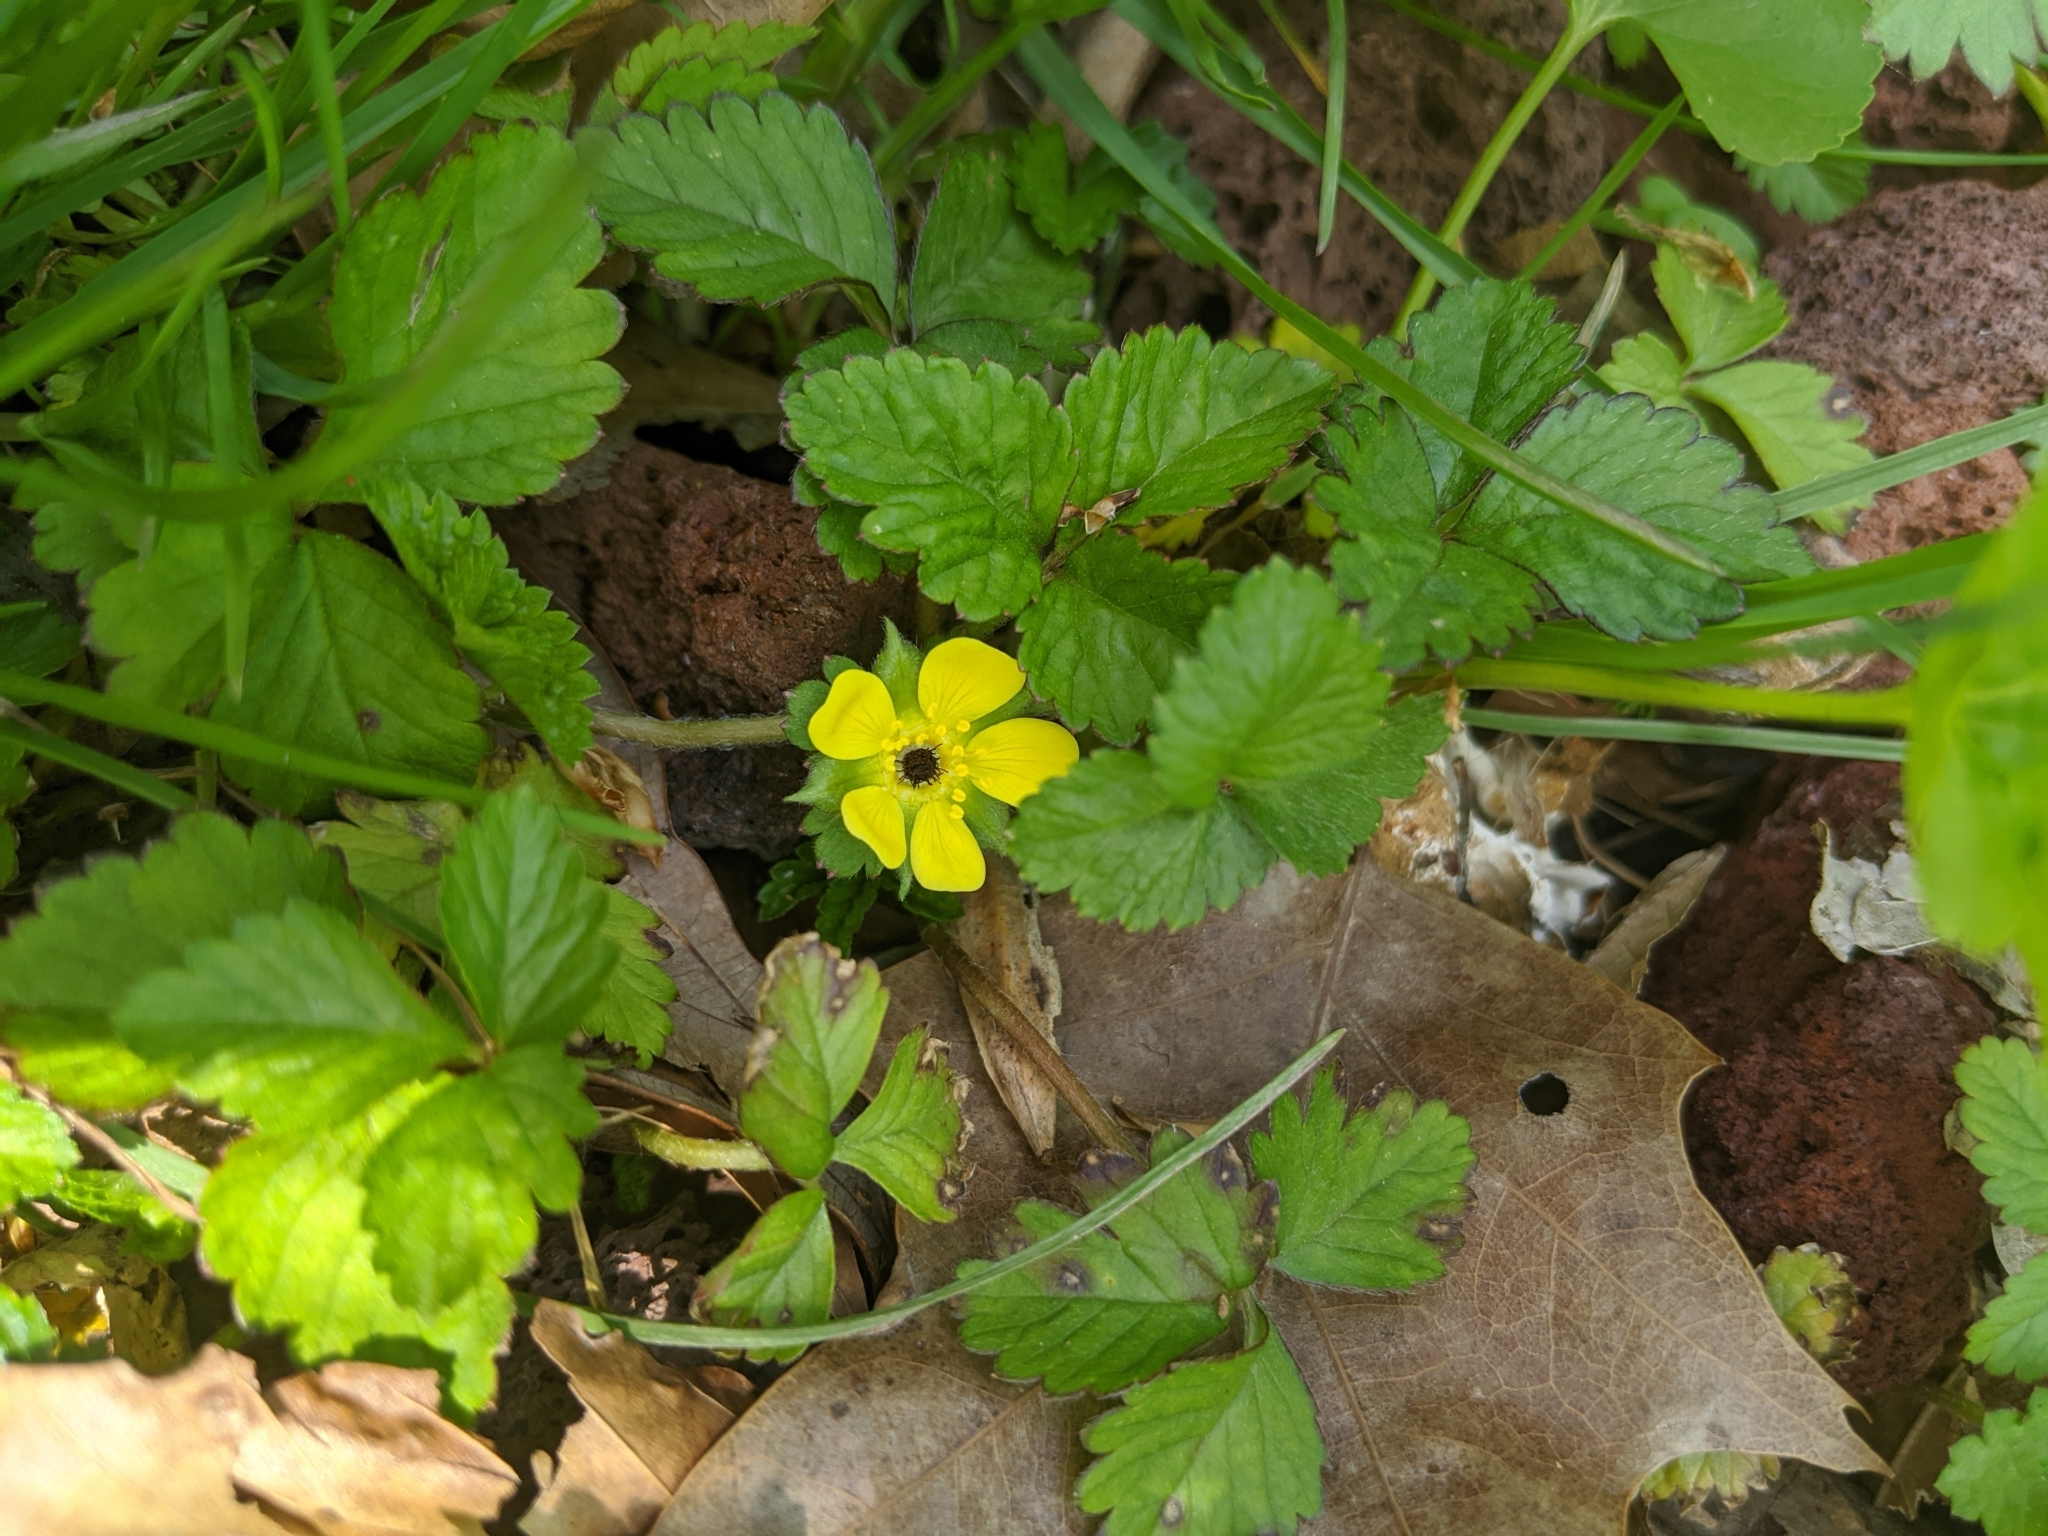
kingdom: Plantae
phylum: Tracheophyta
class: Magnoliopsida
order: Rosales
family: Rosaceae
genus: Potentilla
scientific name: Potentilla indica
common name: Yellow-flowered strawberry
